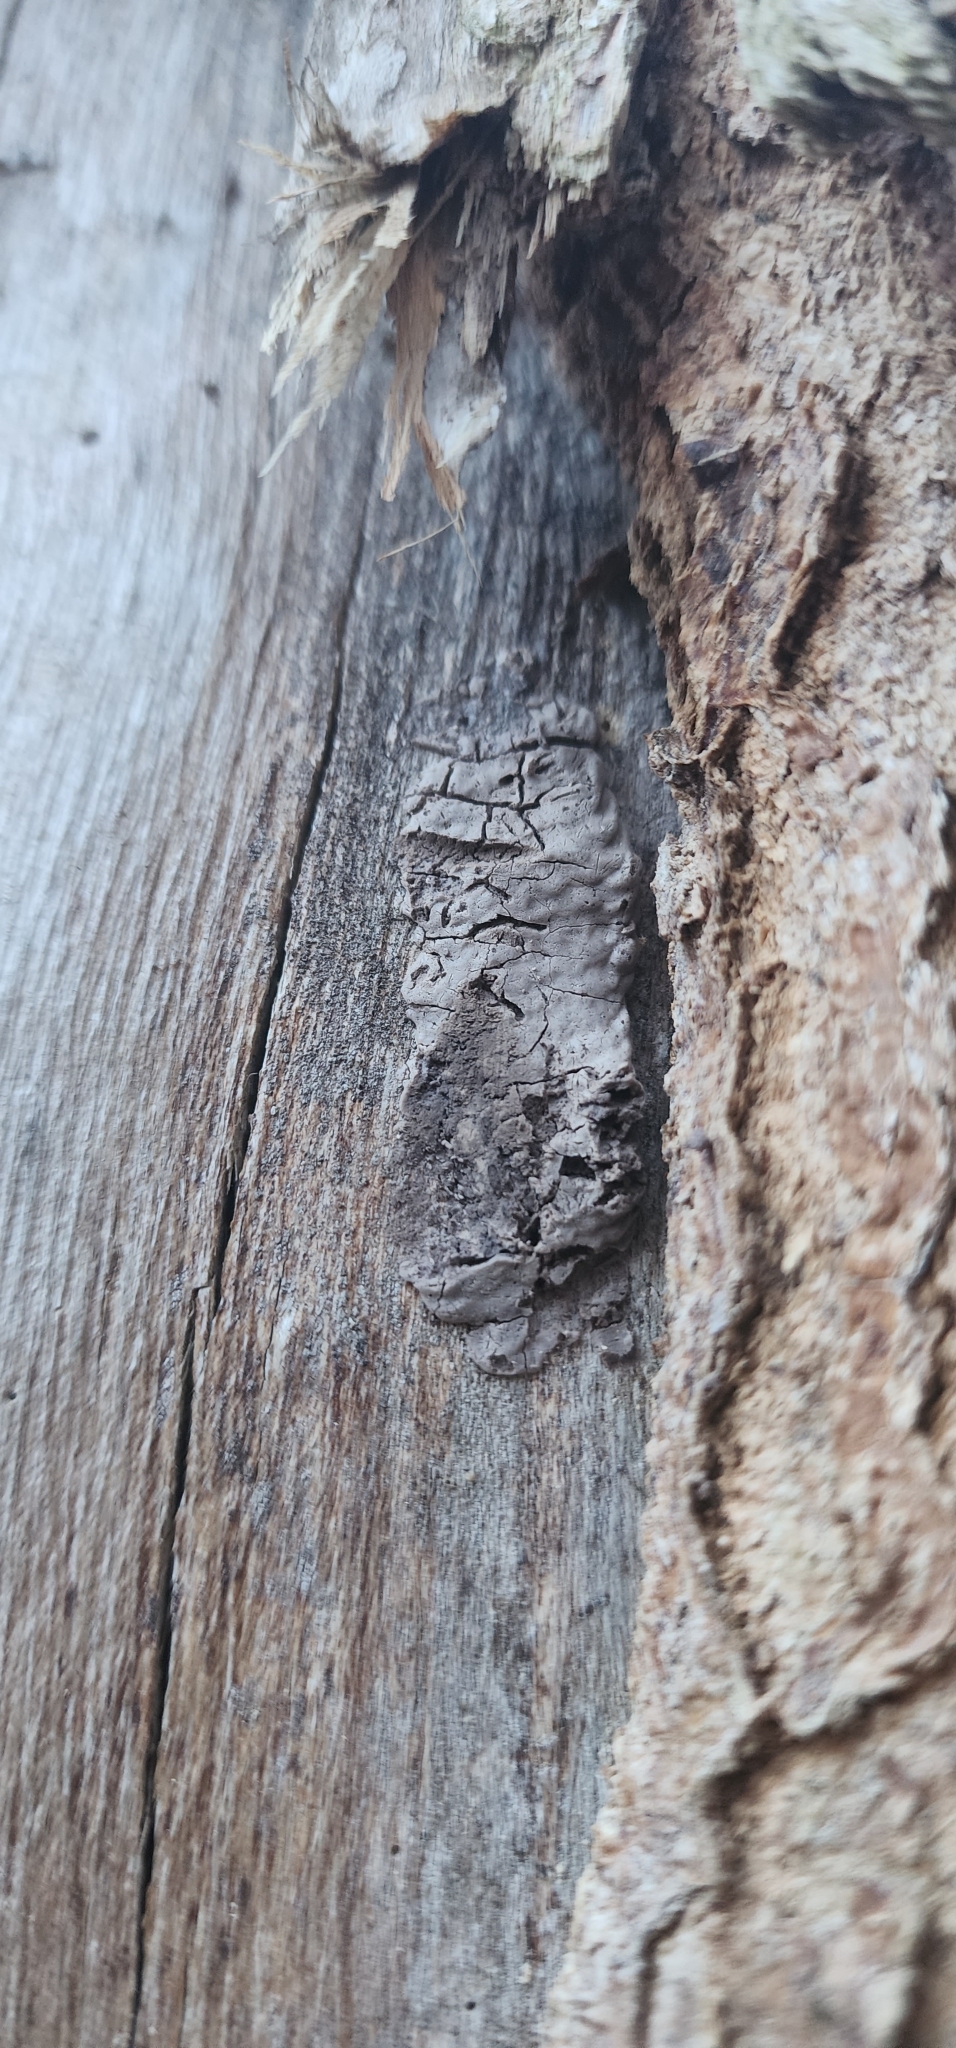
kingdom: Animalia
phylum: Arthropoda
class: Insecta
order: Hemiptera
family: Fulgoridae
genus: Lycorma
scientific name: Lycorma delicatula
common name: Spotted lanternfly
